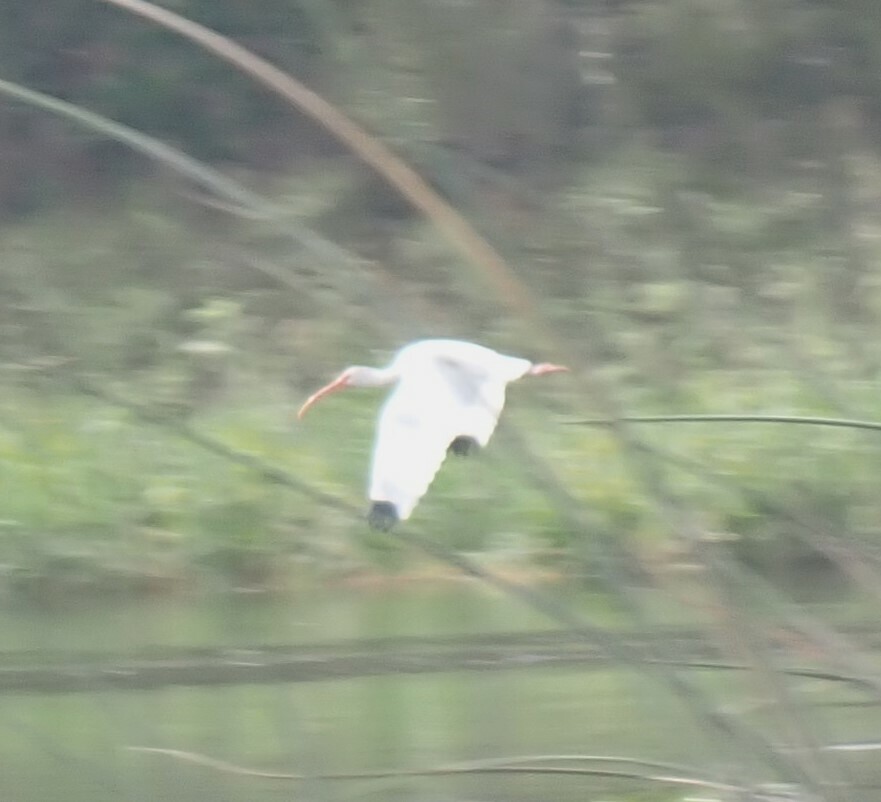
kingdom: Animalia
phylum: Chordata
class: Aves
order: Pelecaniformes
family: Threskiornithidae
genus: Eudocimus
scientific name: Eudocimus albus
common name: White ibis
